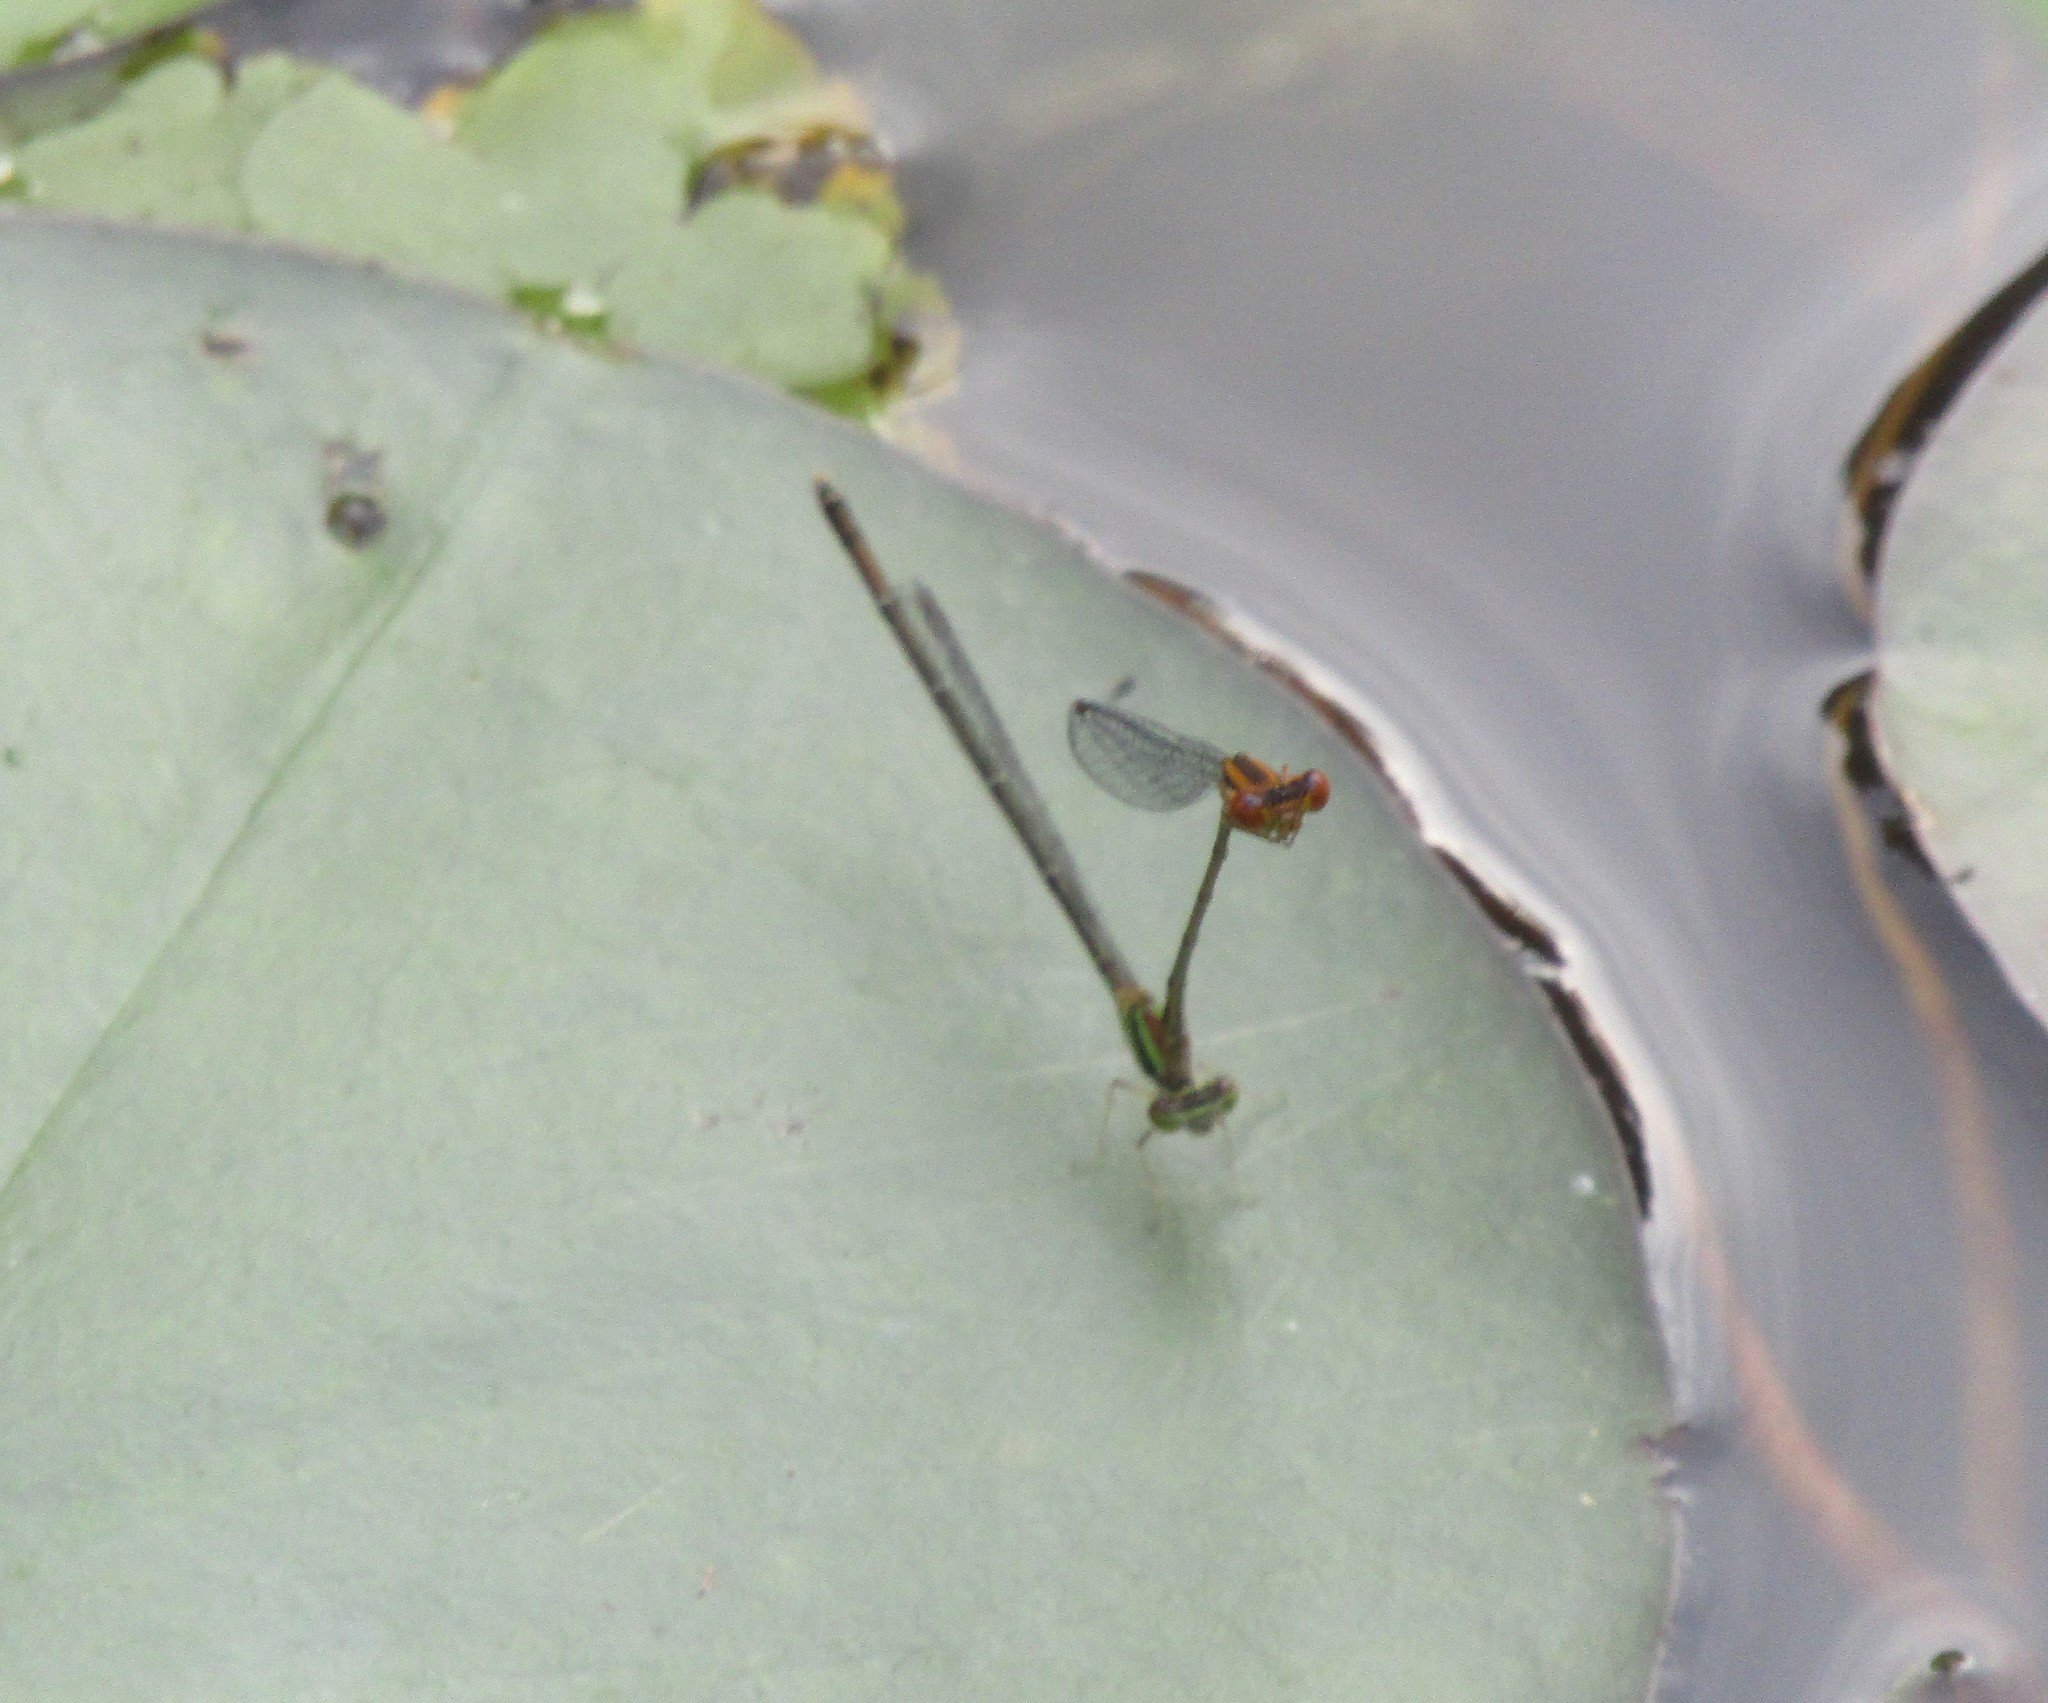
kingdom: Animalia
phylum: Arthropoda
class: Insecta
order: Odonata
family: Coenagrionidae
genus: Enallagma
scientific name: Enallagma signatum
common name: Orange bluet
